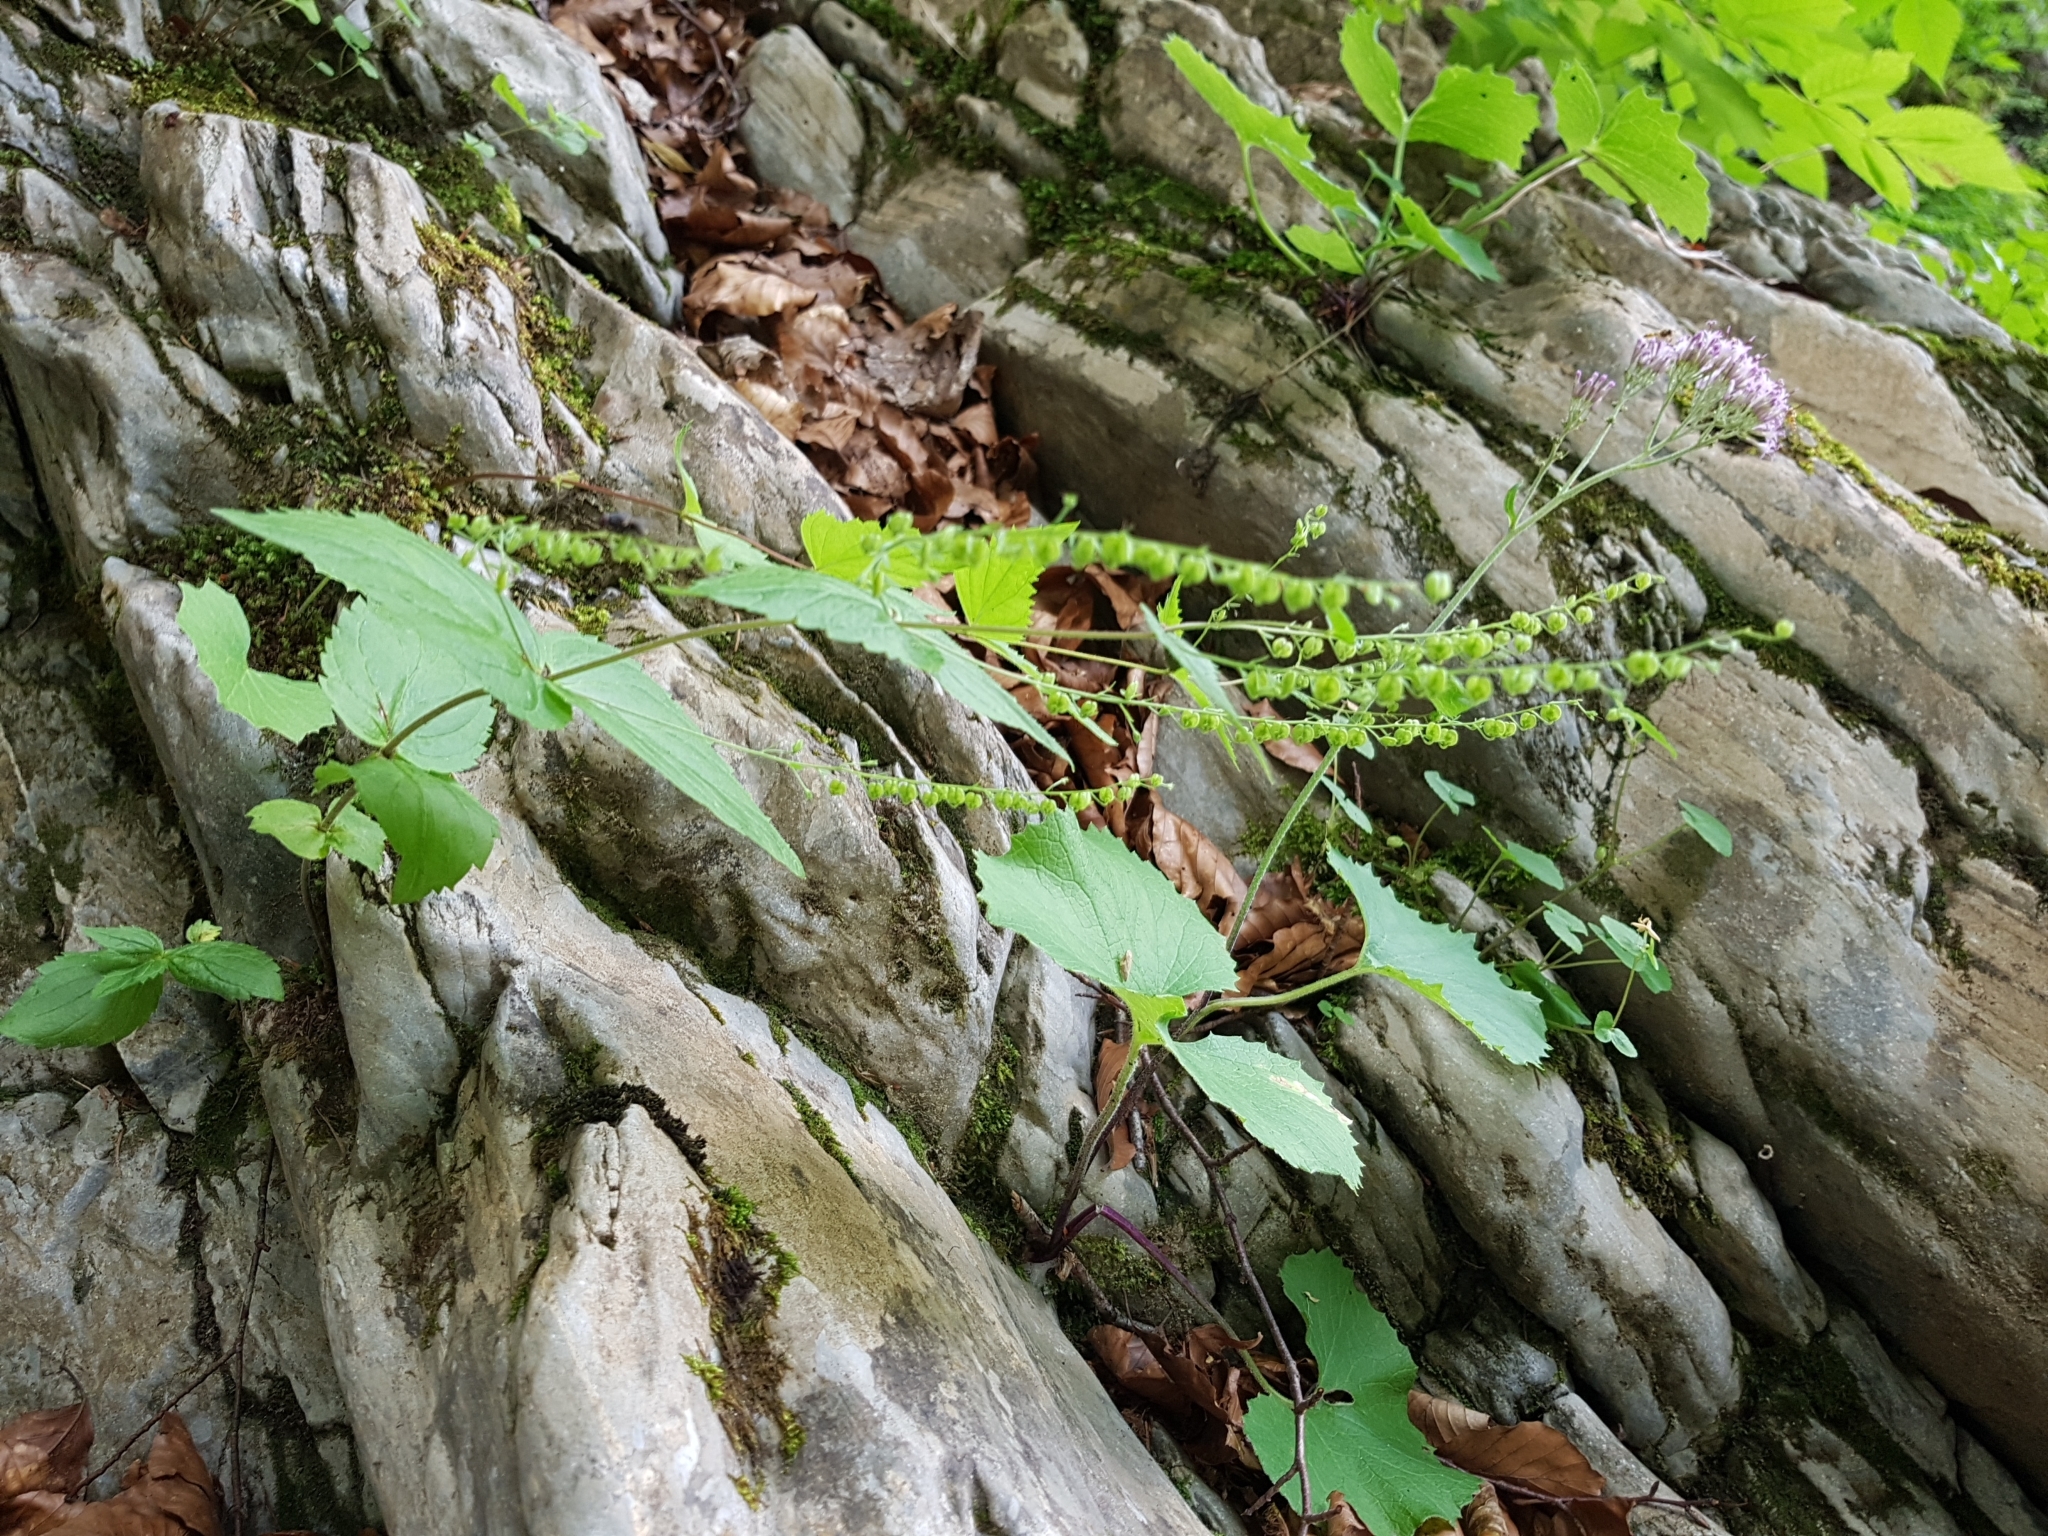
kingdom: Plantae
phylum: Tracheophyta
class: Magnoliopsida
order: Lamiales
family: Plantaginaceae
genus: Veronica
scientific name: Veronica urticifolia
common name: Nettle-leaf speedwell
